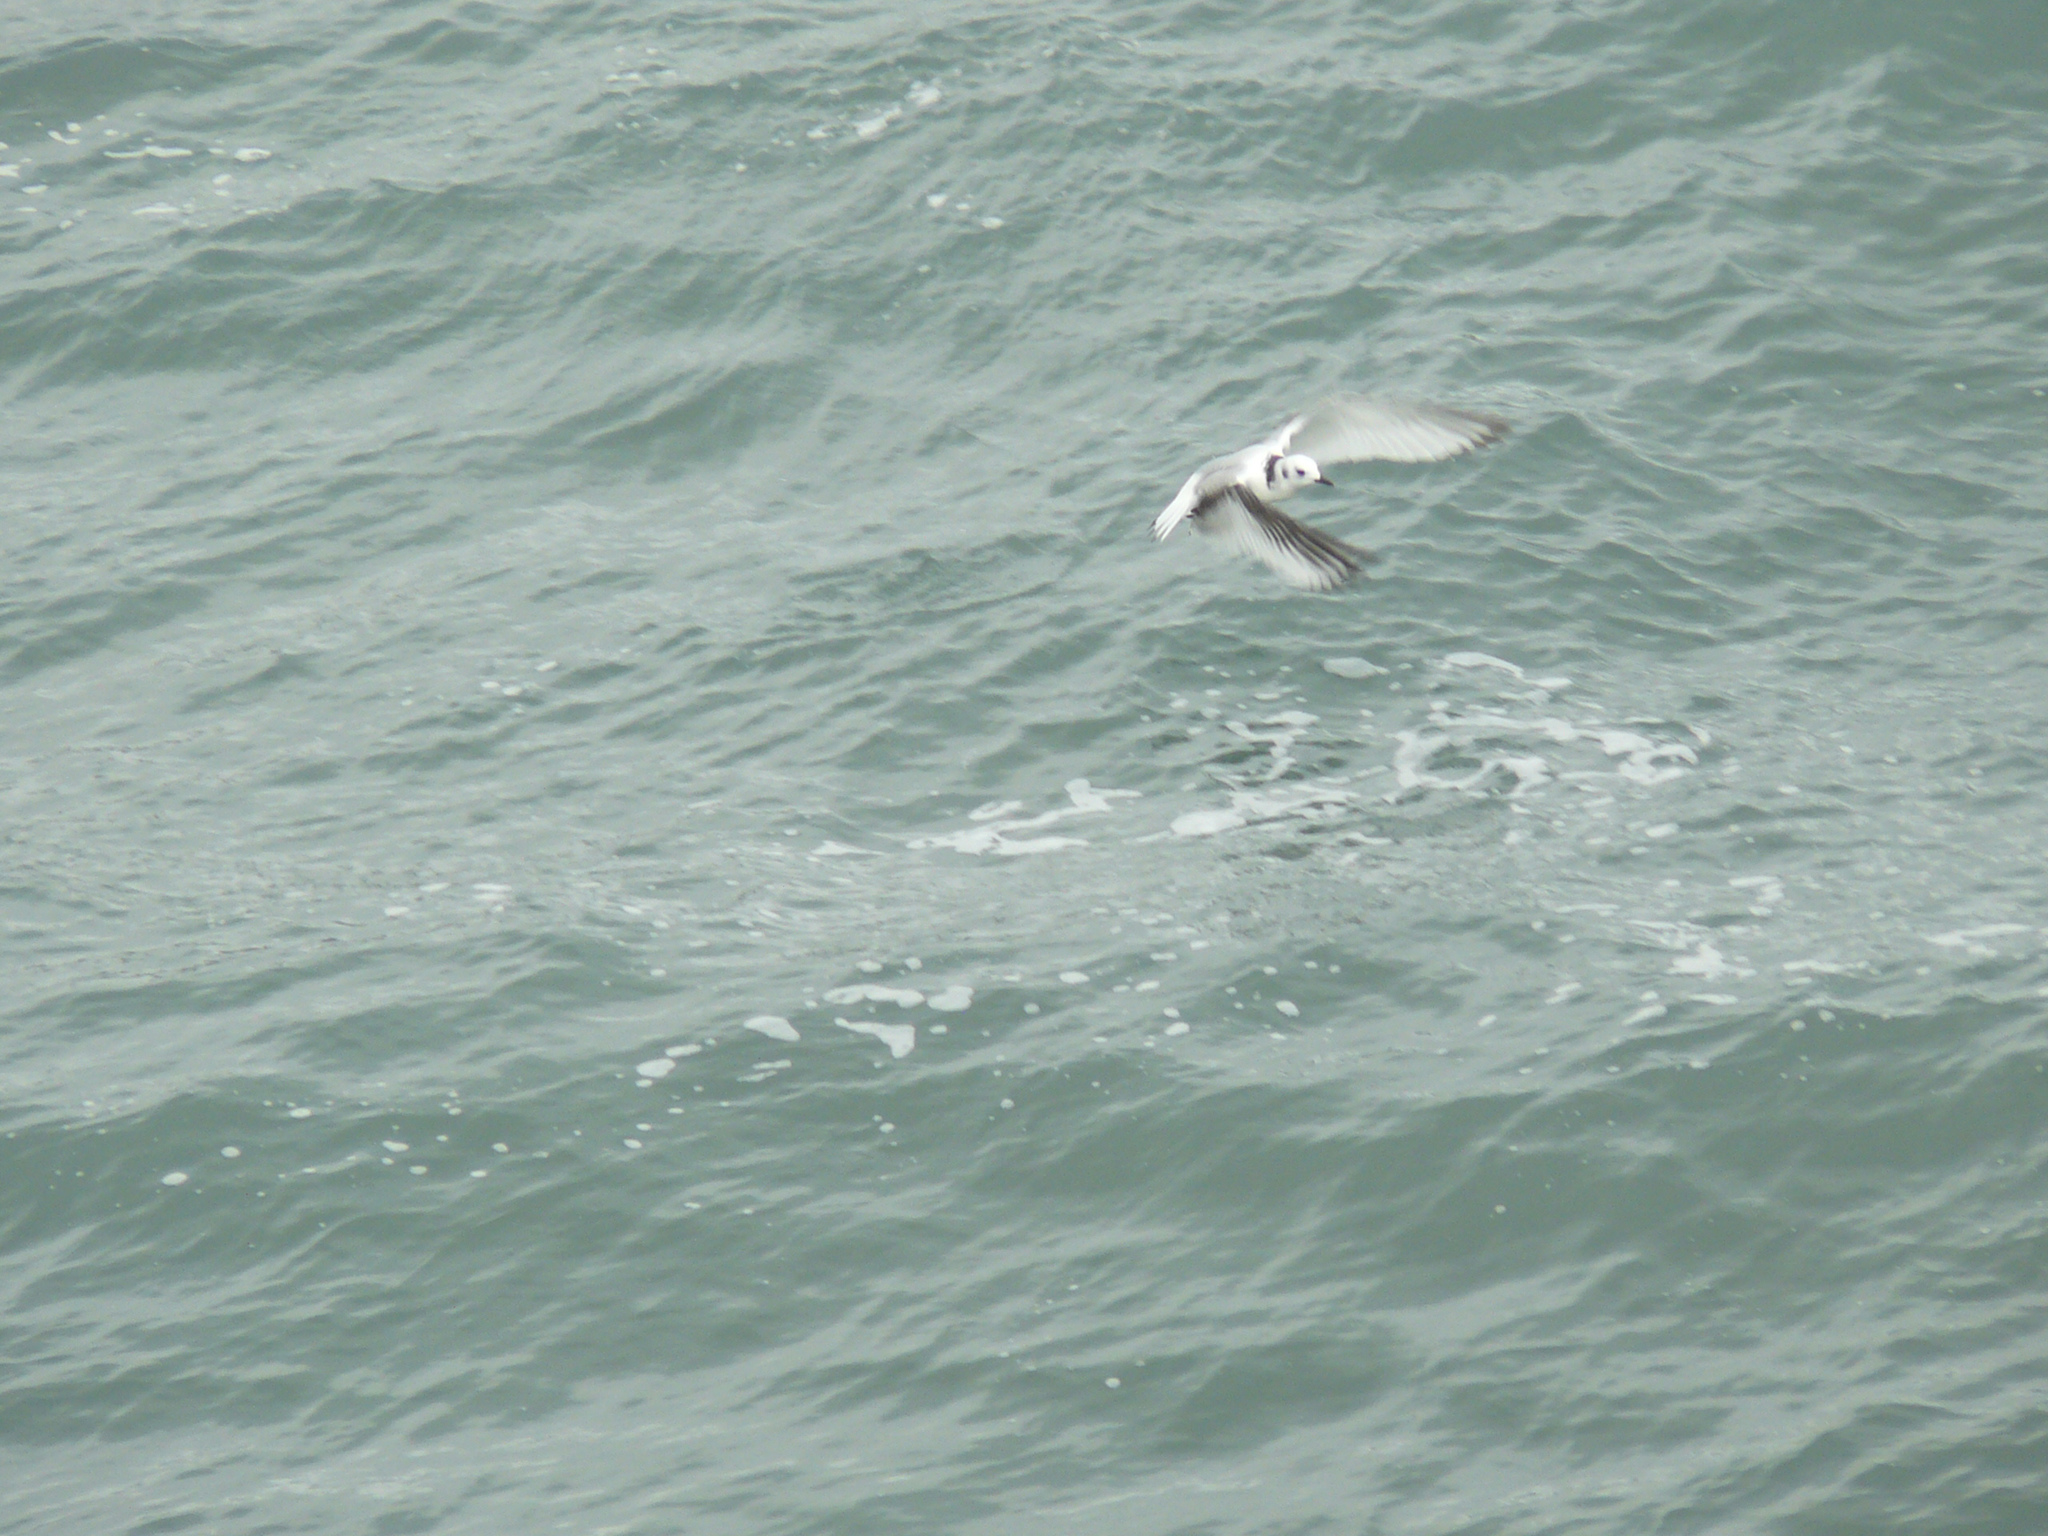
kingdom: Animalia
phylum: Chordata
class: Aves
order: Charadriiformes
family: Laridae
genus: Rissa
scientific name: Rissa tridactyla
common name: Black-legged kittiwake
